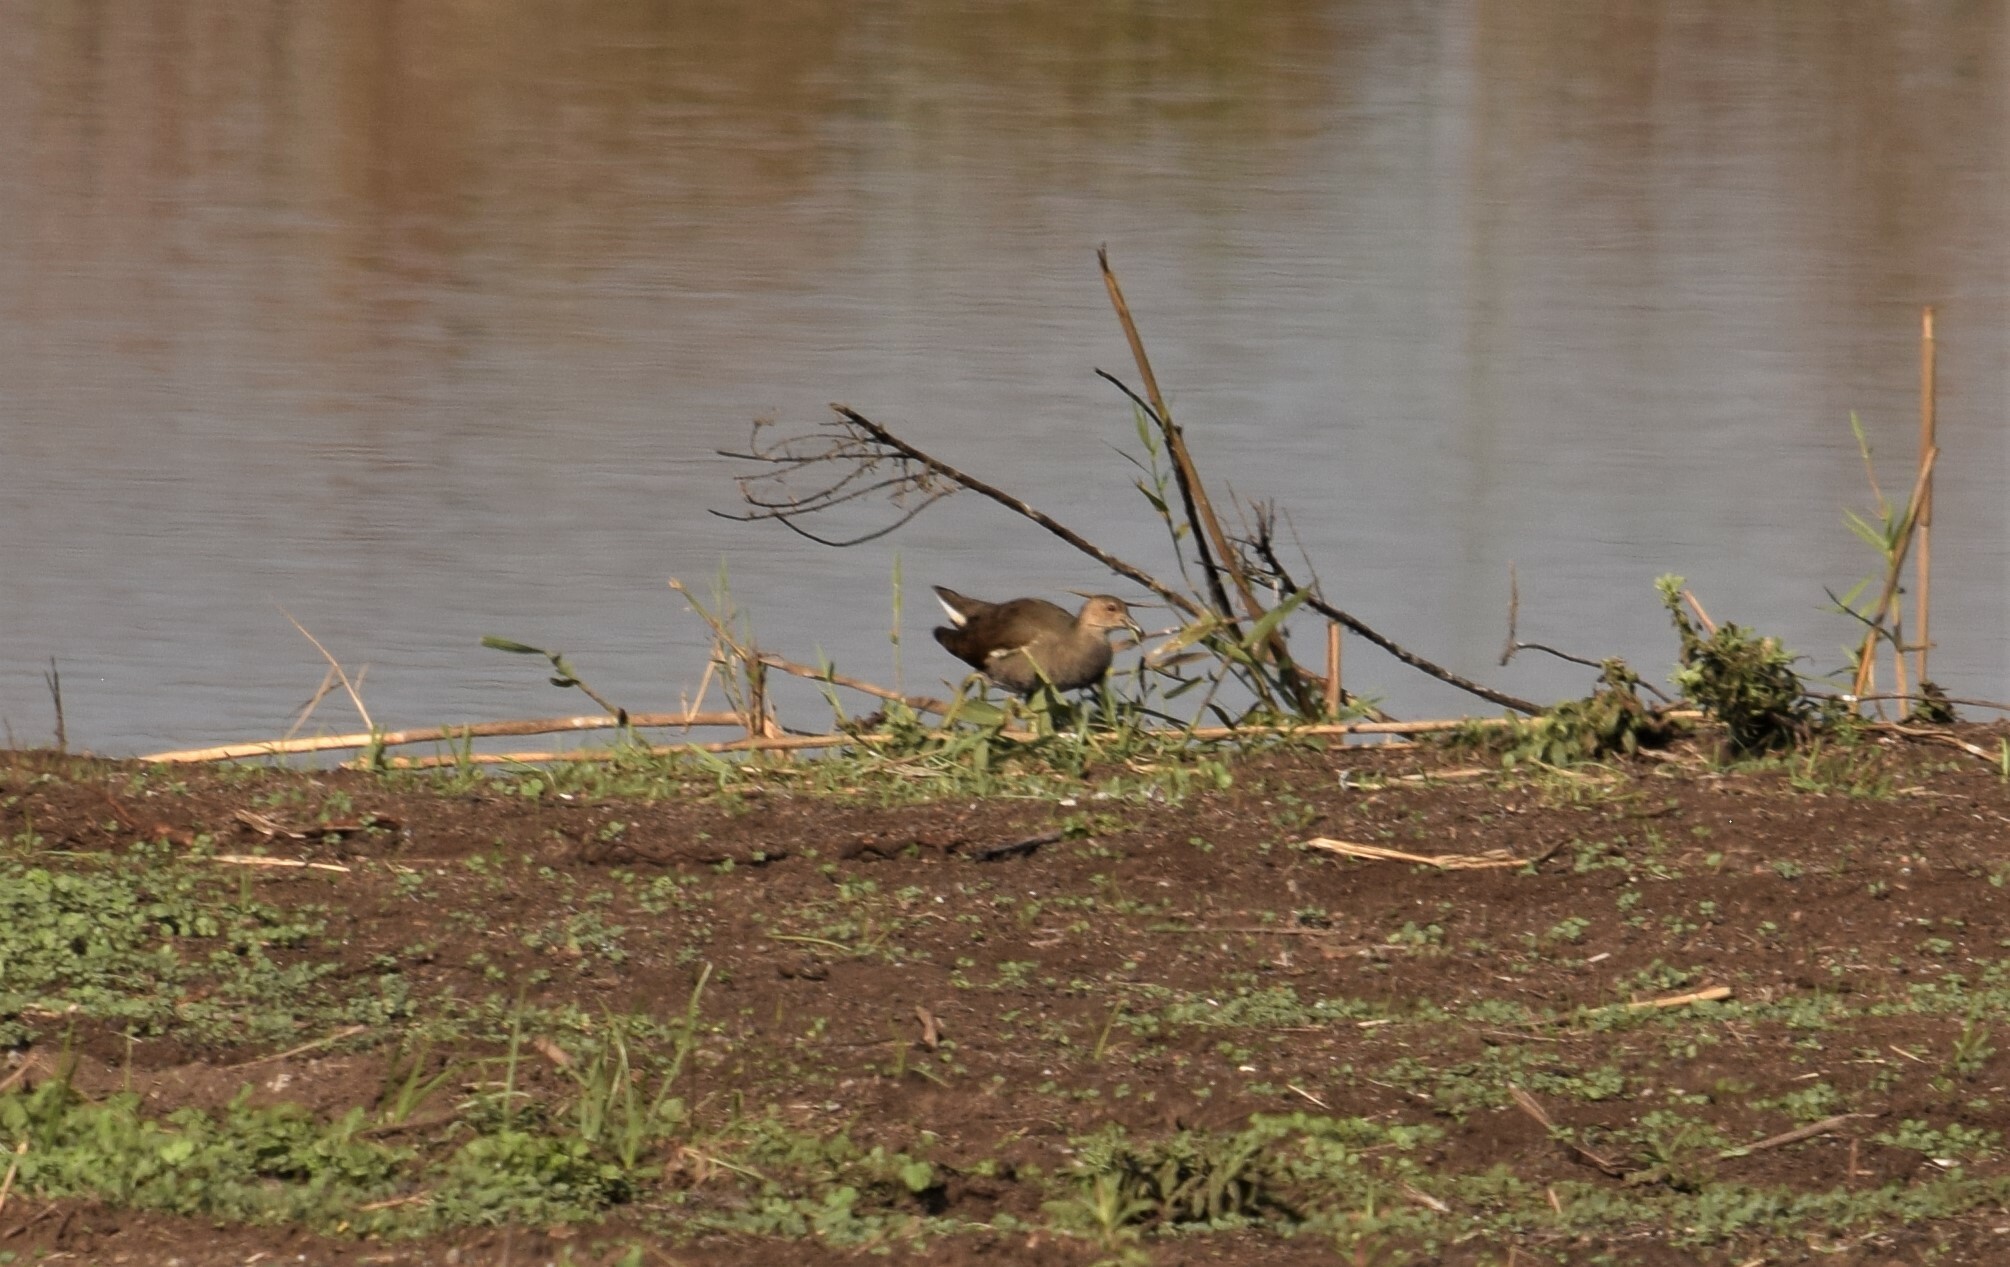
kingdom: Animalia
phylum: Chordata
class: Aves
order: Gruiformes
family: Rallidae
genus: Gallinula
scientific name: Gallinula chloropus
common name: Common moorhen
